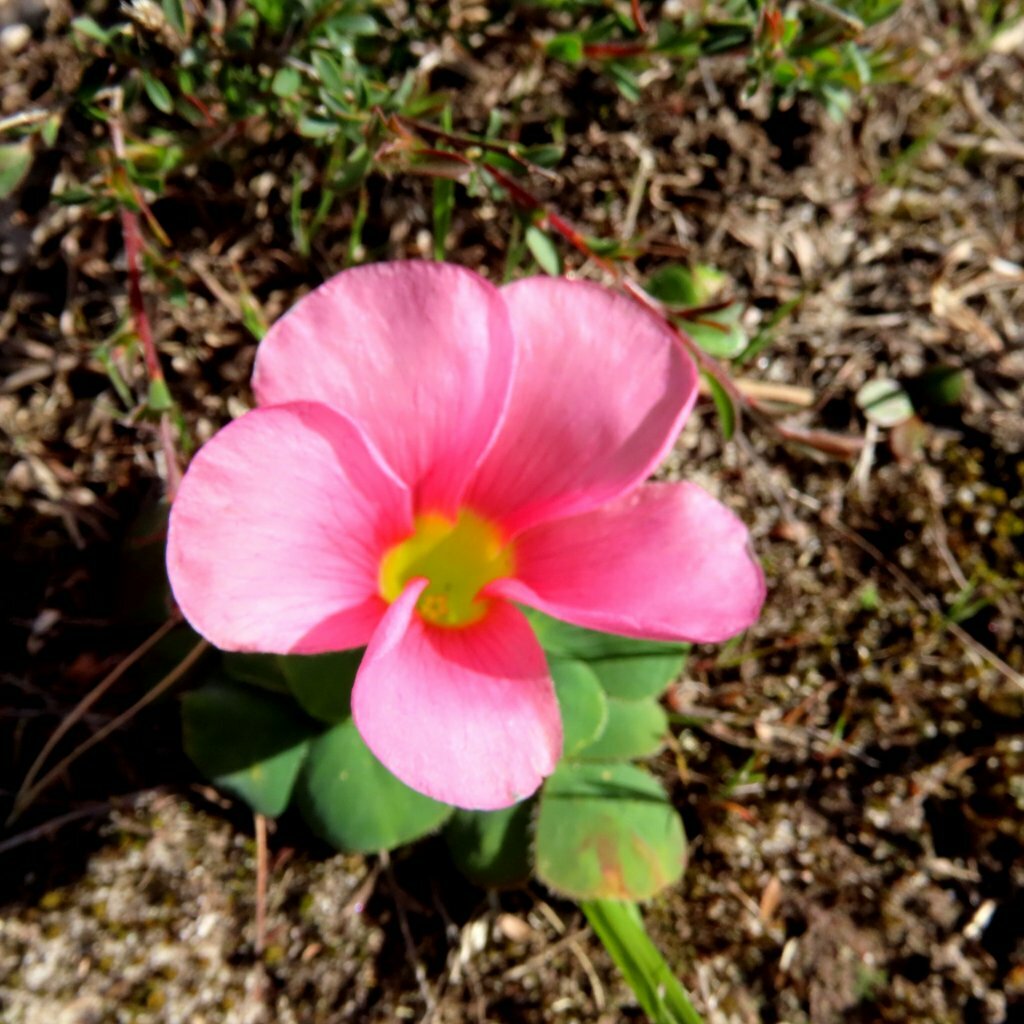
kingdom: Plantae
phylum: Tracheophyta
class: Magnoliopsida
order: Oxalidales
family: Oxalidaceae
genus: Oxalis
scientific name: Oxalis purpurea
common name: Purple woodsorrel
